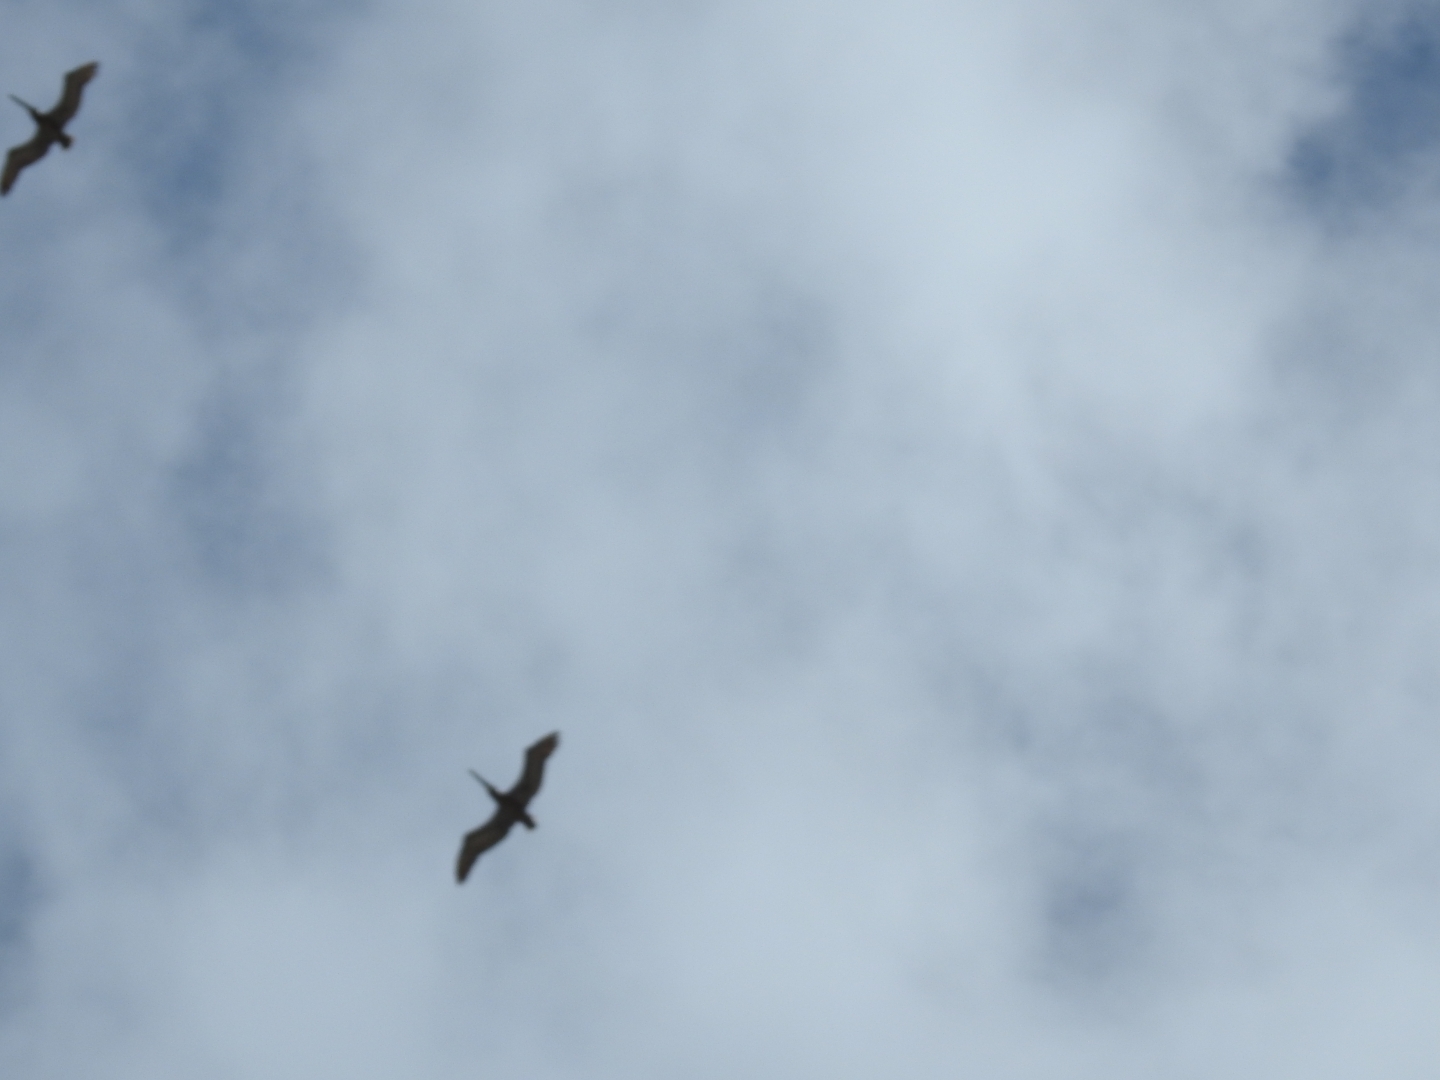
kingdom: Animalia
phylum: Chordata
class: Aves
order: Pelecaniformes
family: Pelecanidae
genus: Pelecanus
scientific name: Pelecanus occidentalis
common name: Brown pelican
